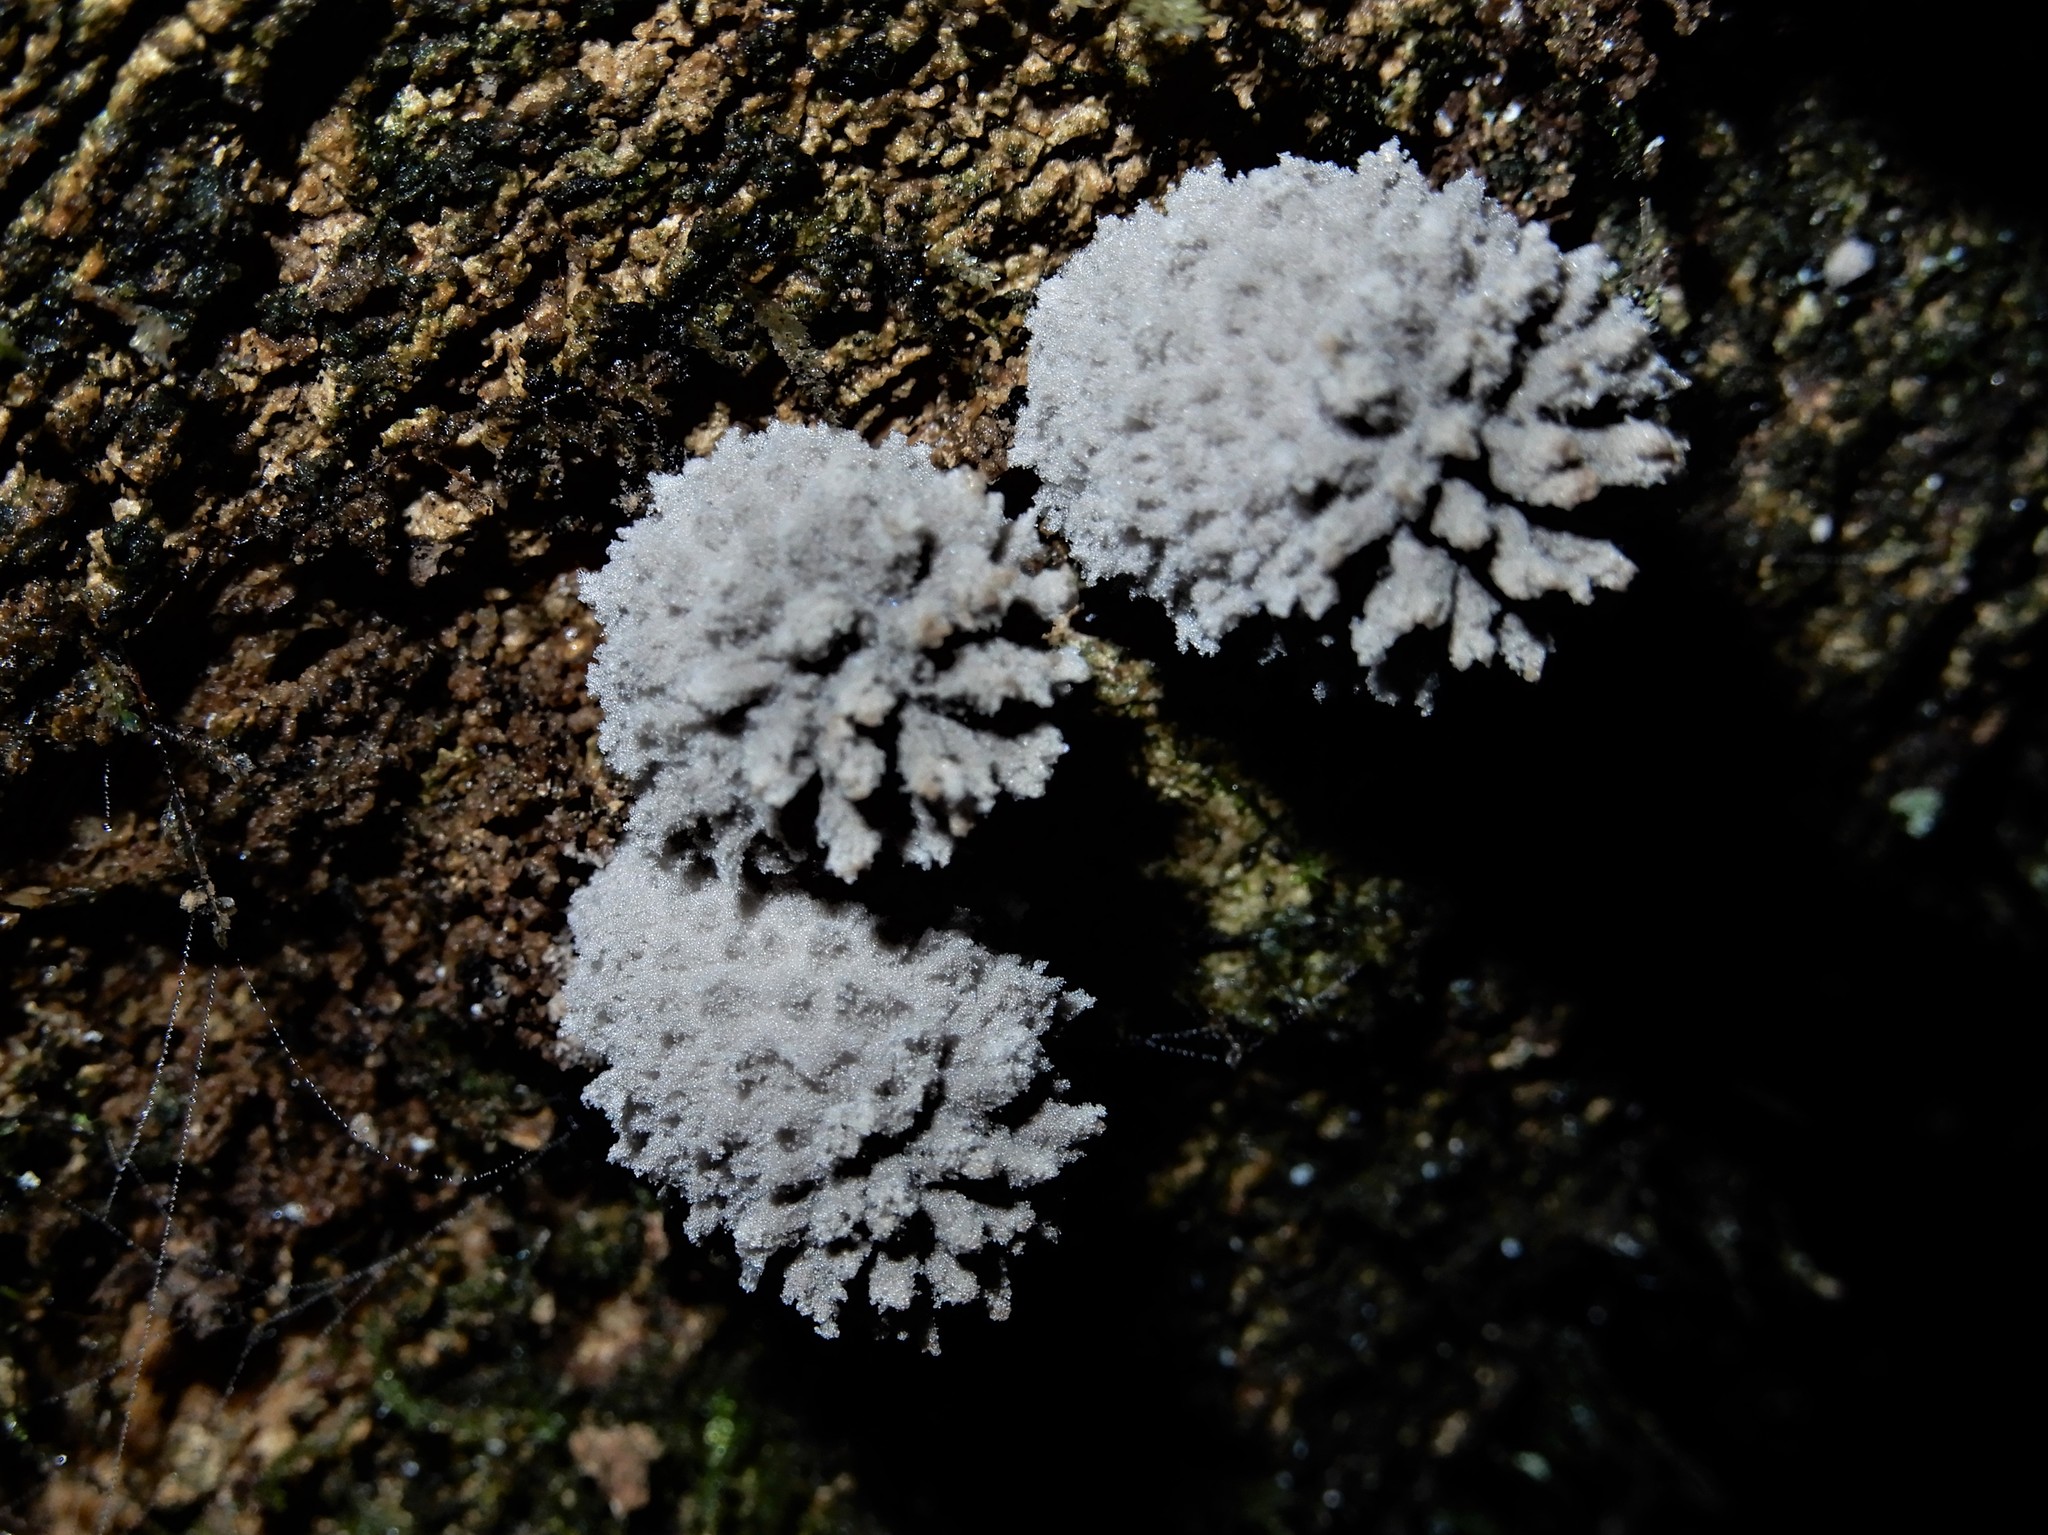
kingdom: Fungi
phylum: Basidiomycota
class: Agaricomycetes
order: Agaricales
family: Psathyrellaceae
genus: Coprinopsis
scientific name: Coprinopsis laanii
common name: Dotty inkcap
